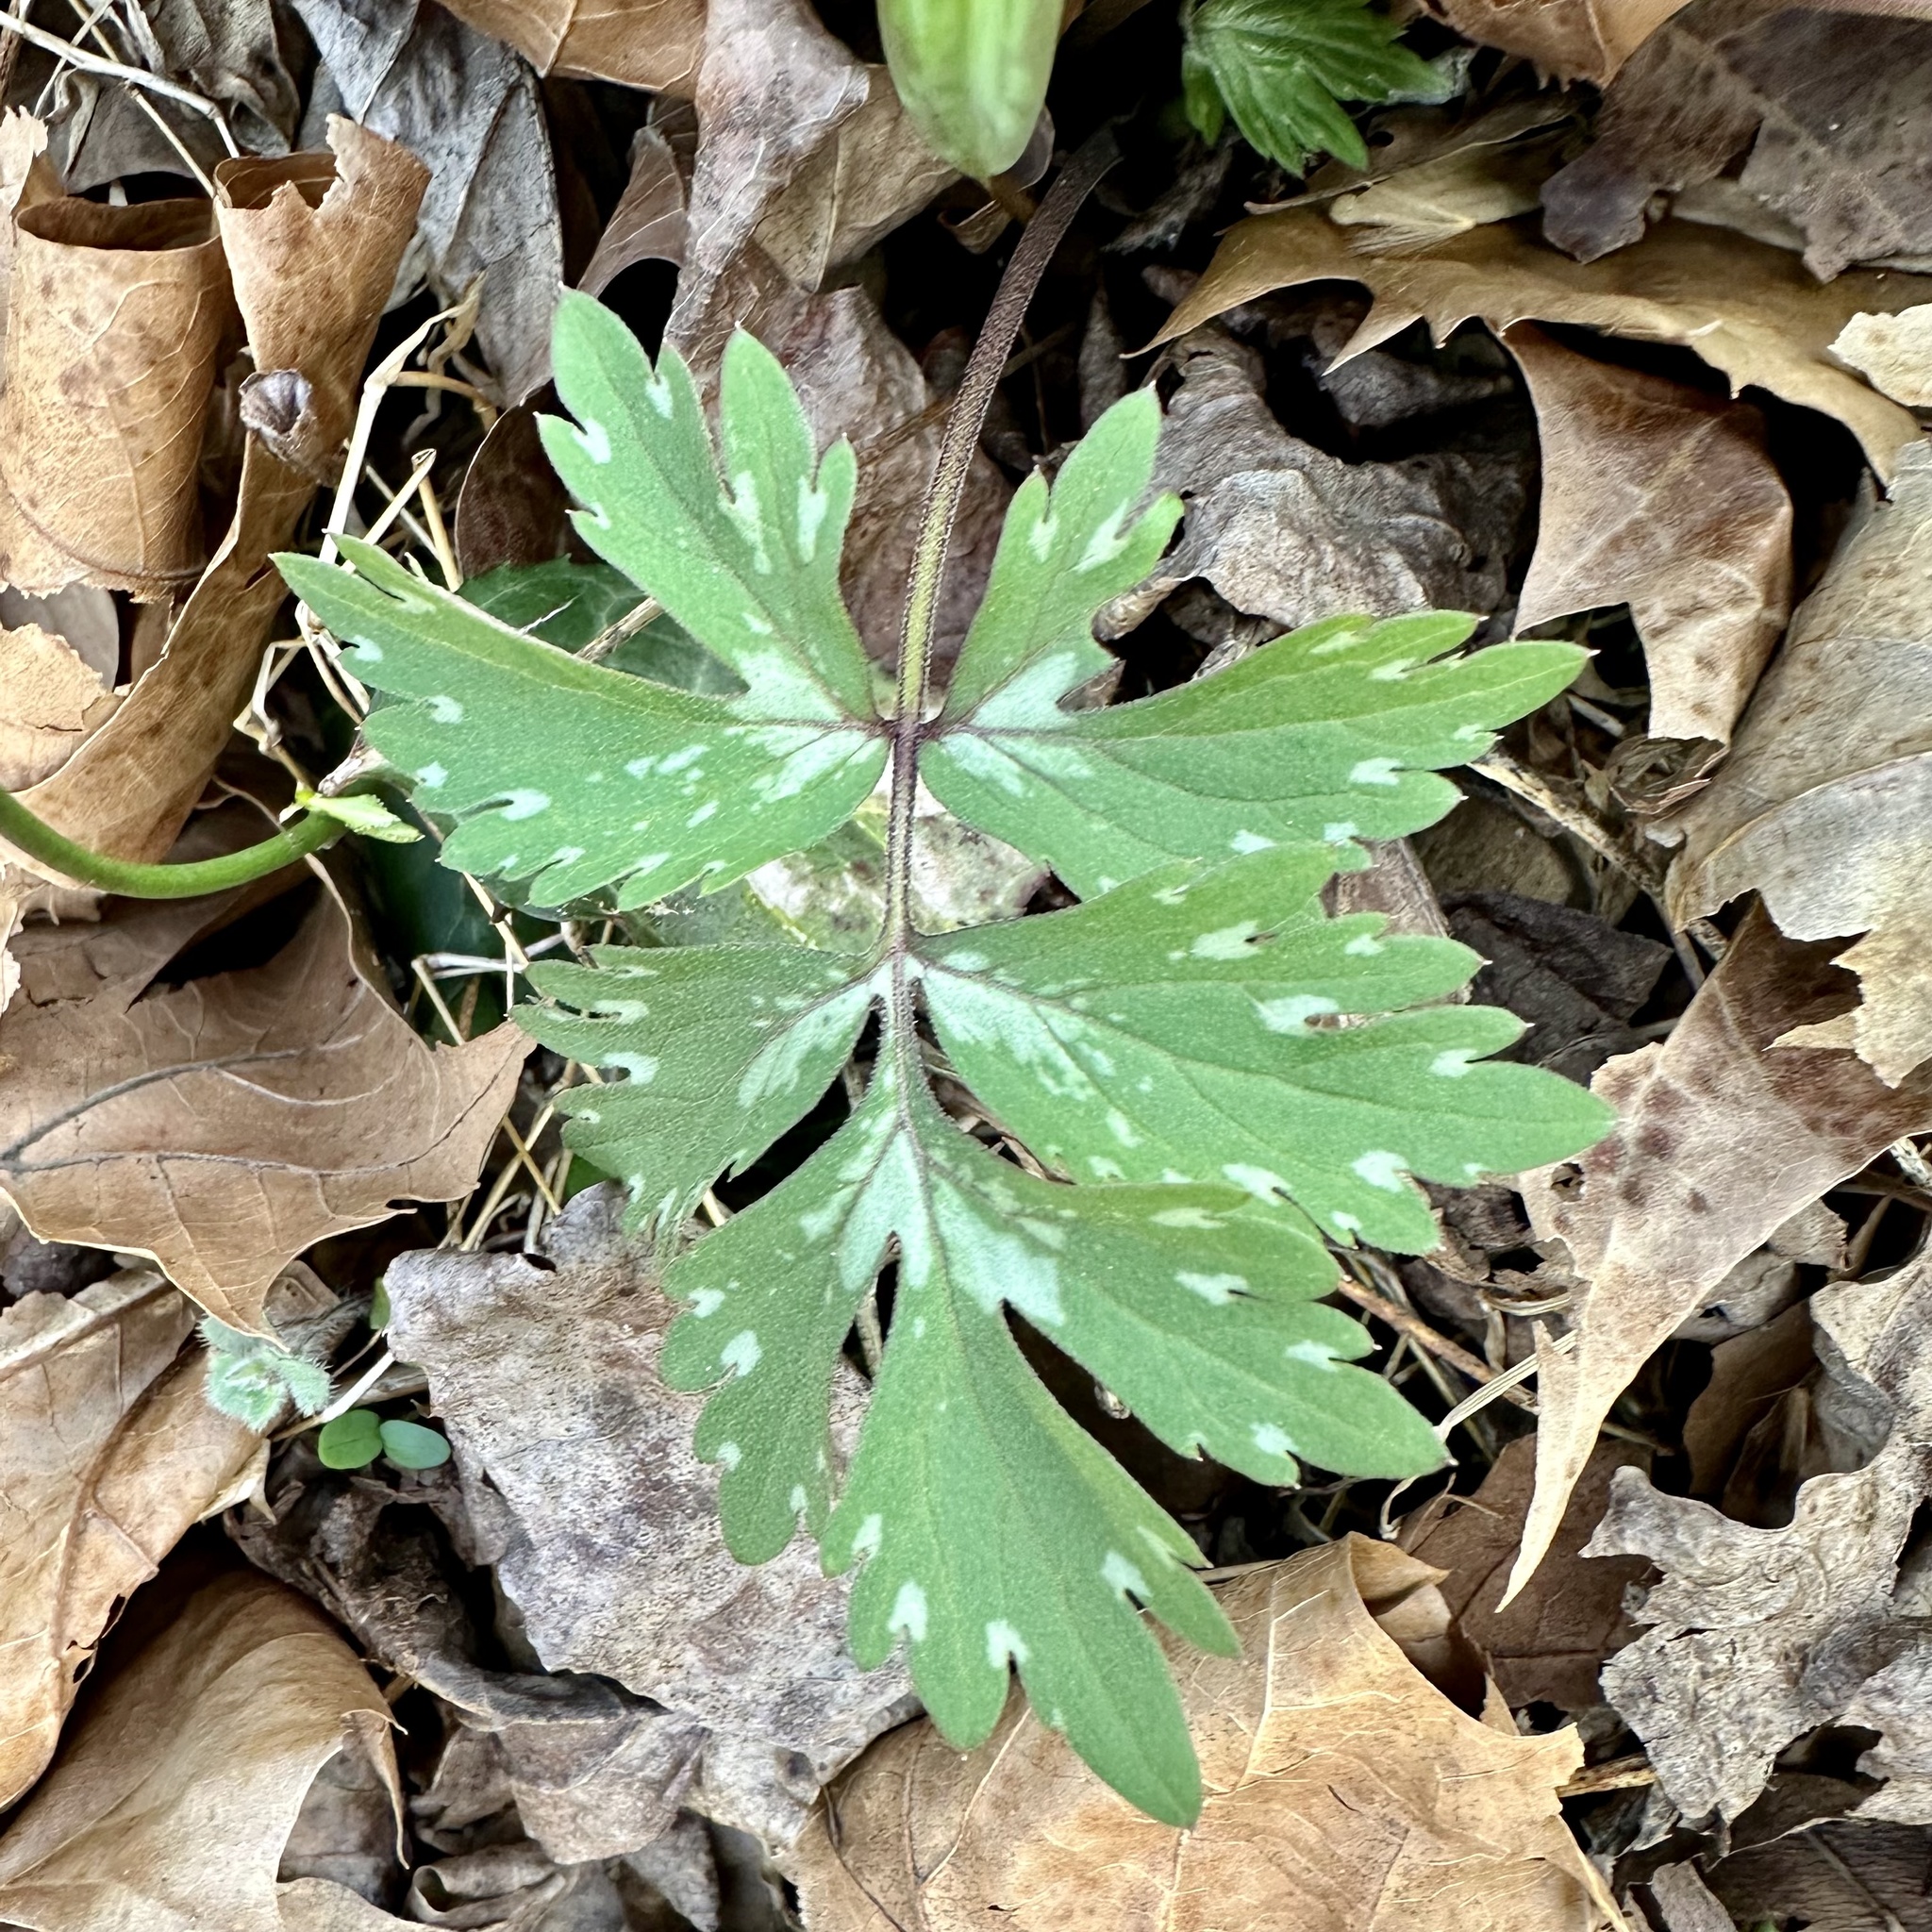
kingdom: Plantae
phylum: Tracheophyta
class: Magnoliopsida
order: Boraginales
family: Hydrophyllaceae
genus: Hydrophyllum
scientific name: Hydrophyllum virginianum
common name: Virginia waterleaf
